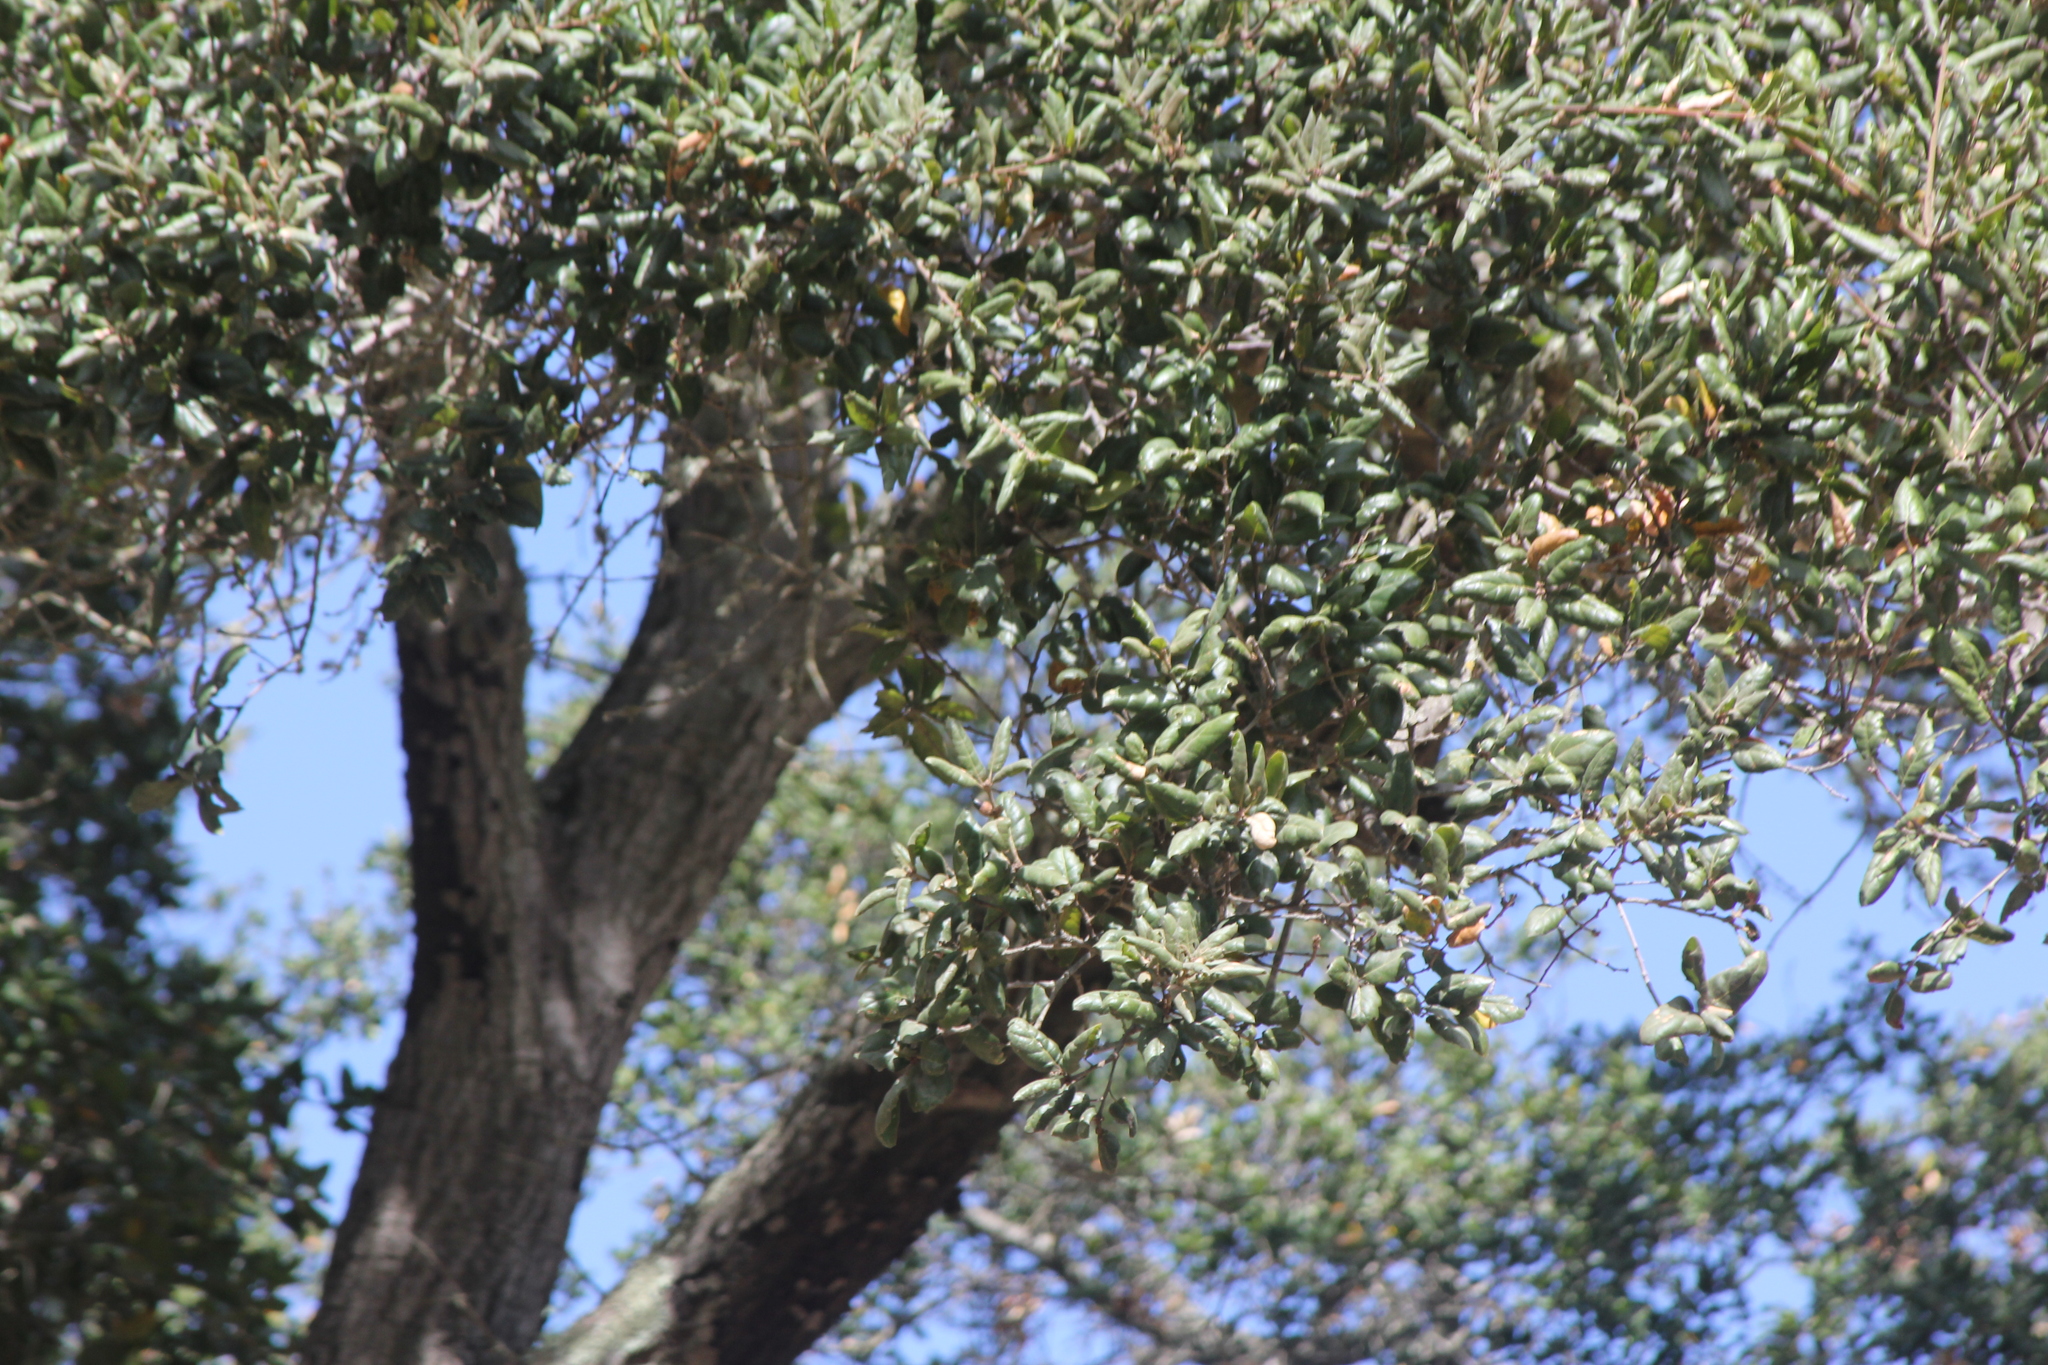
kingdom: Plantae
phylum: Tracheophyta
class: Magnoliopsida
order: Fagales
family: Fagaceae
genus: Quercus
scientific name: Quercus agrifolia
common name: California live oak
